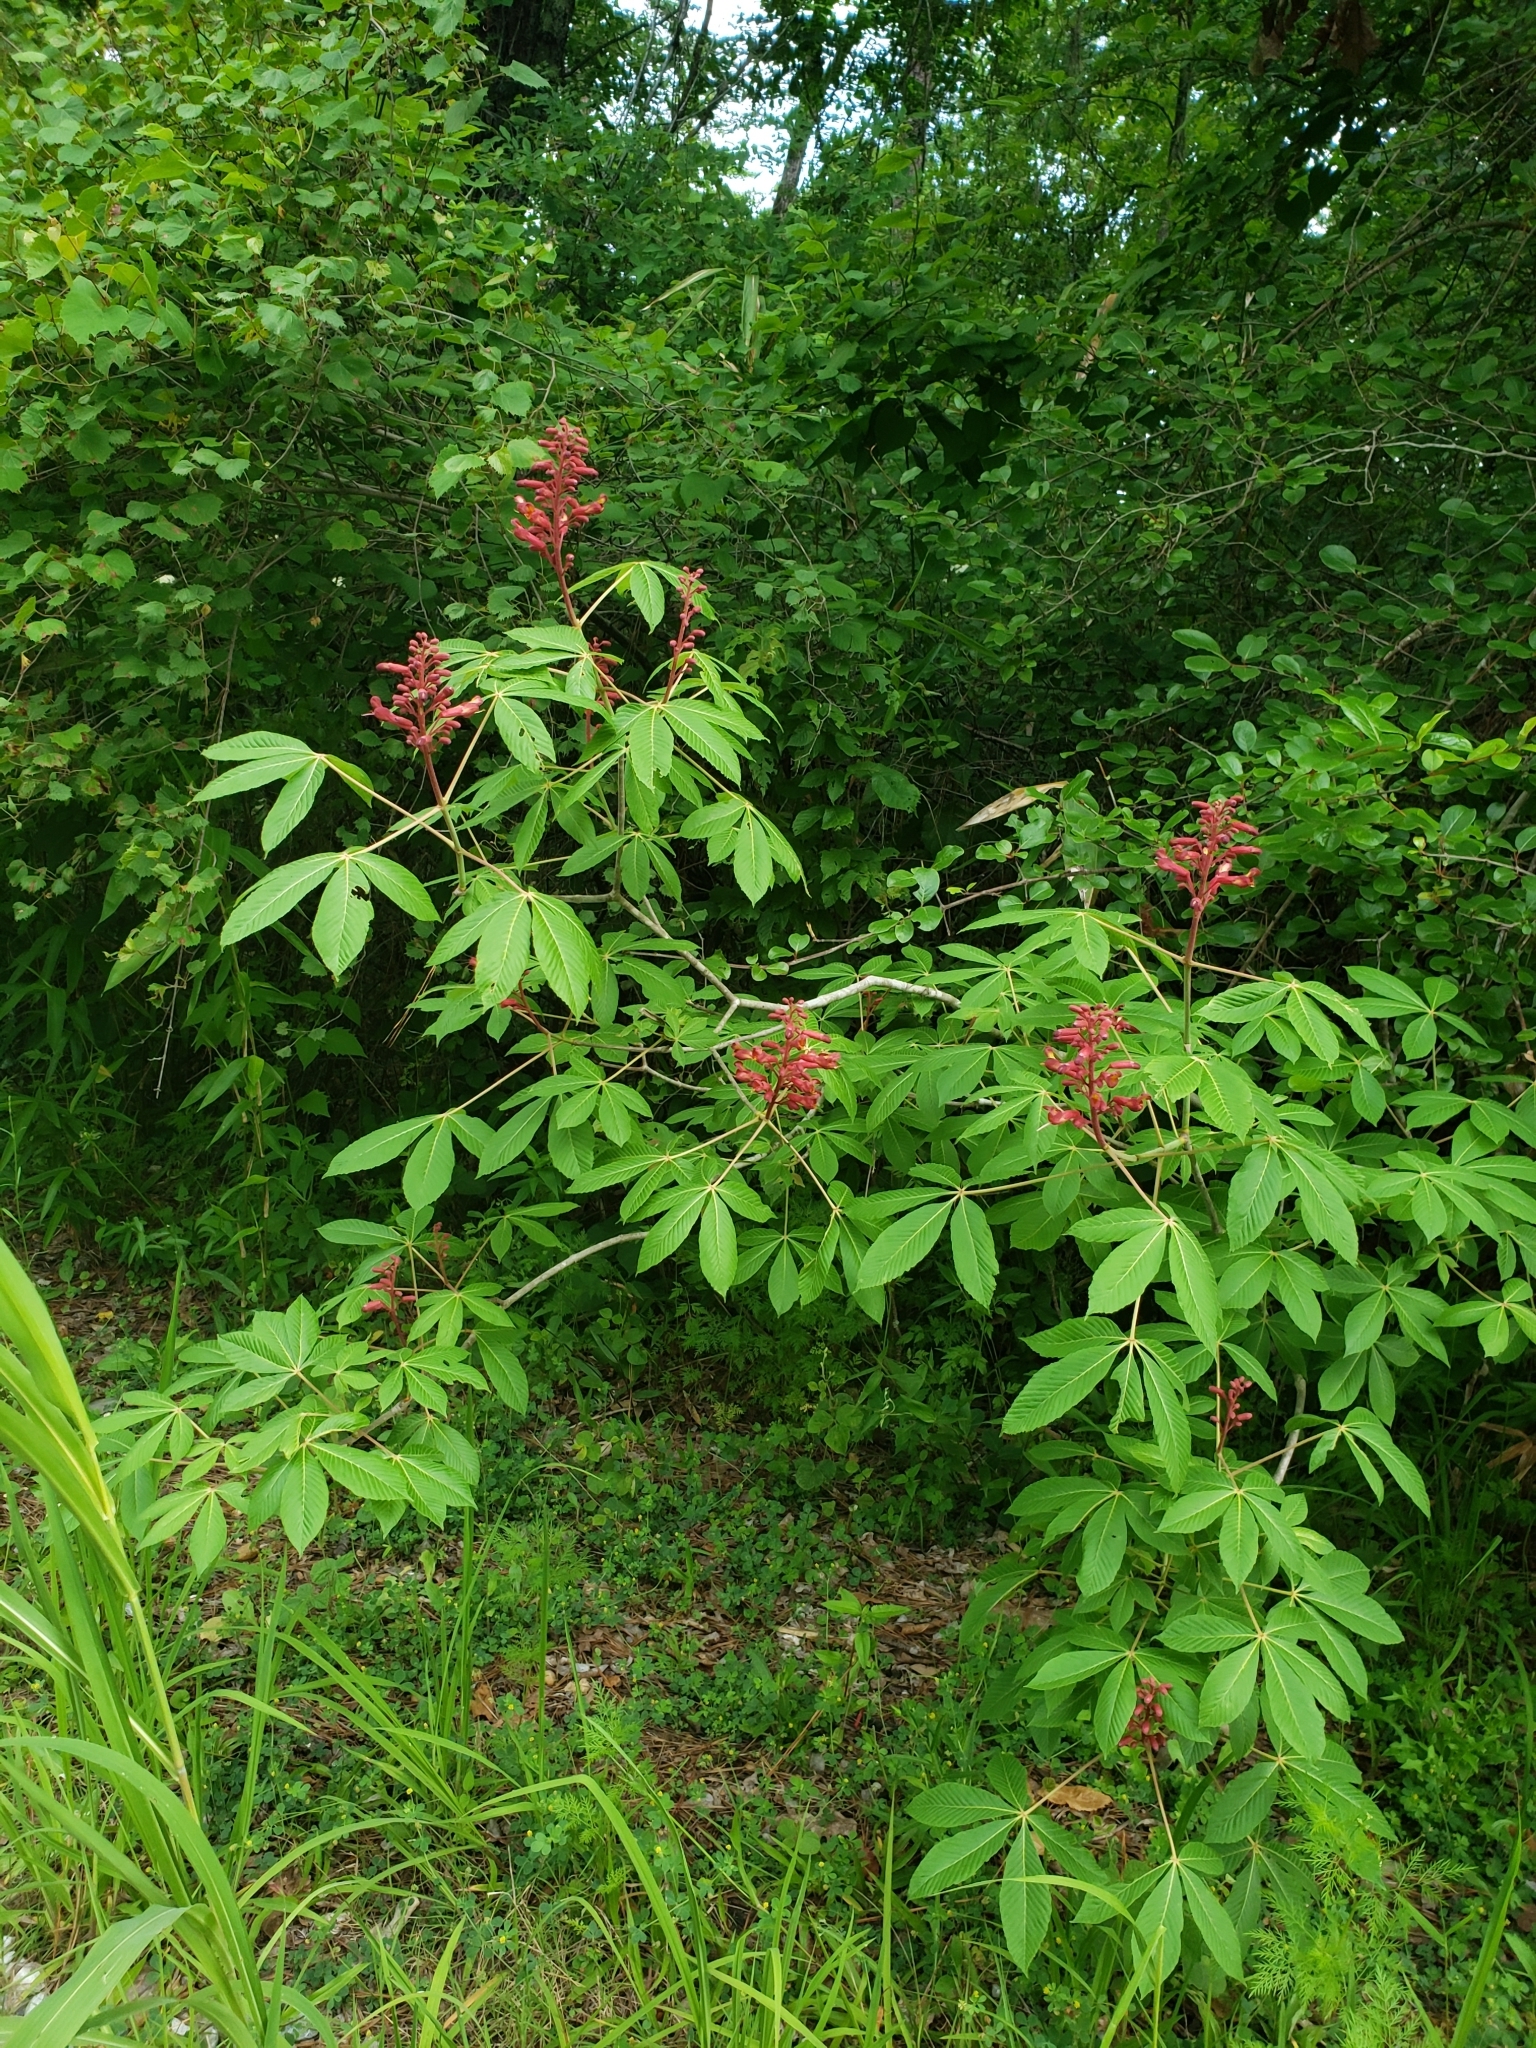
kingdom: Plantae
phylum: Tracheophyta
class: Magnoliopsida
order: Sapindales
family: Sapindaceae
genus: Aesculus
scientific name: Aesculus pavia
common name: Red buckeye
